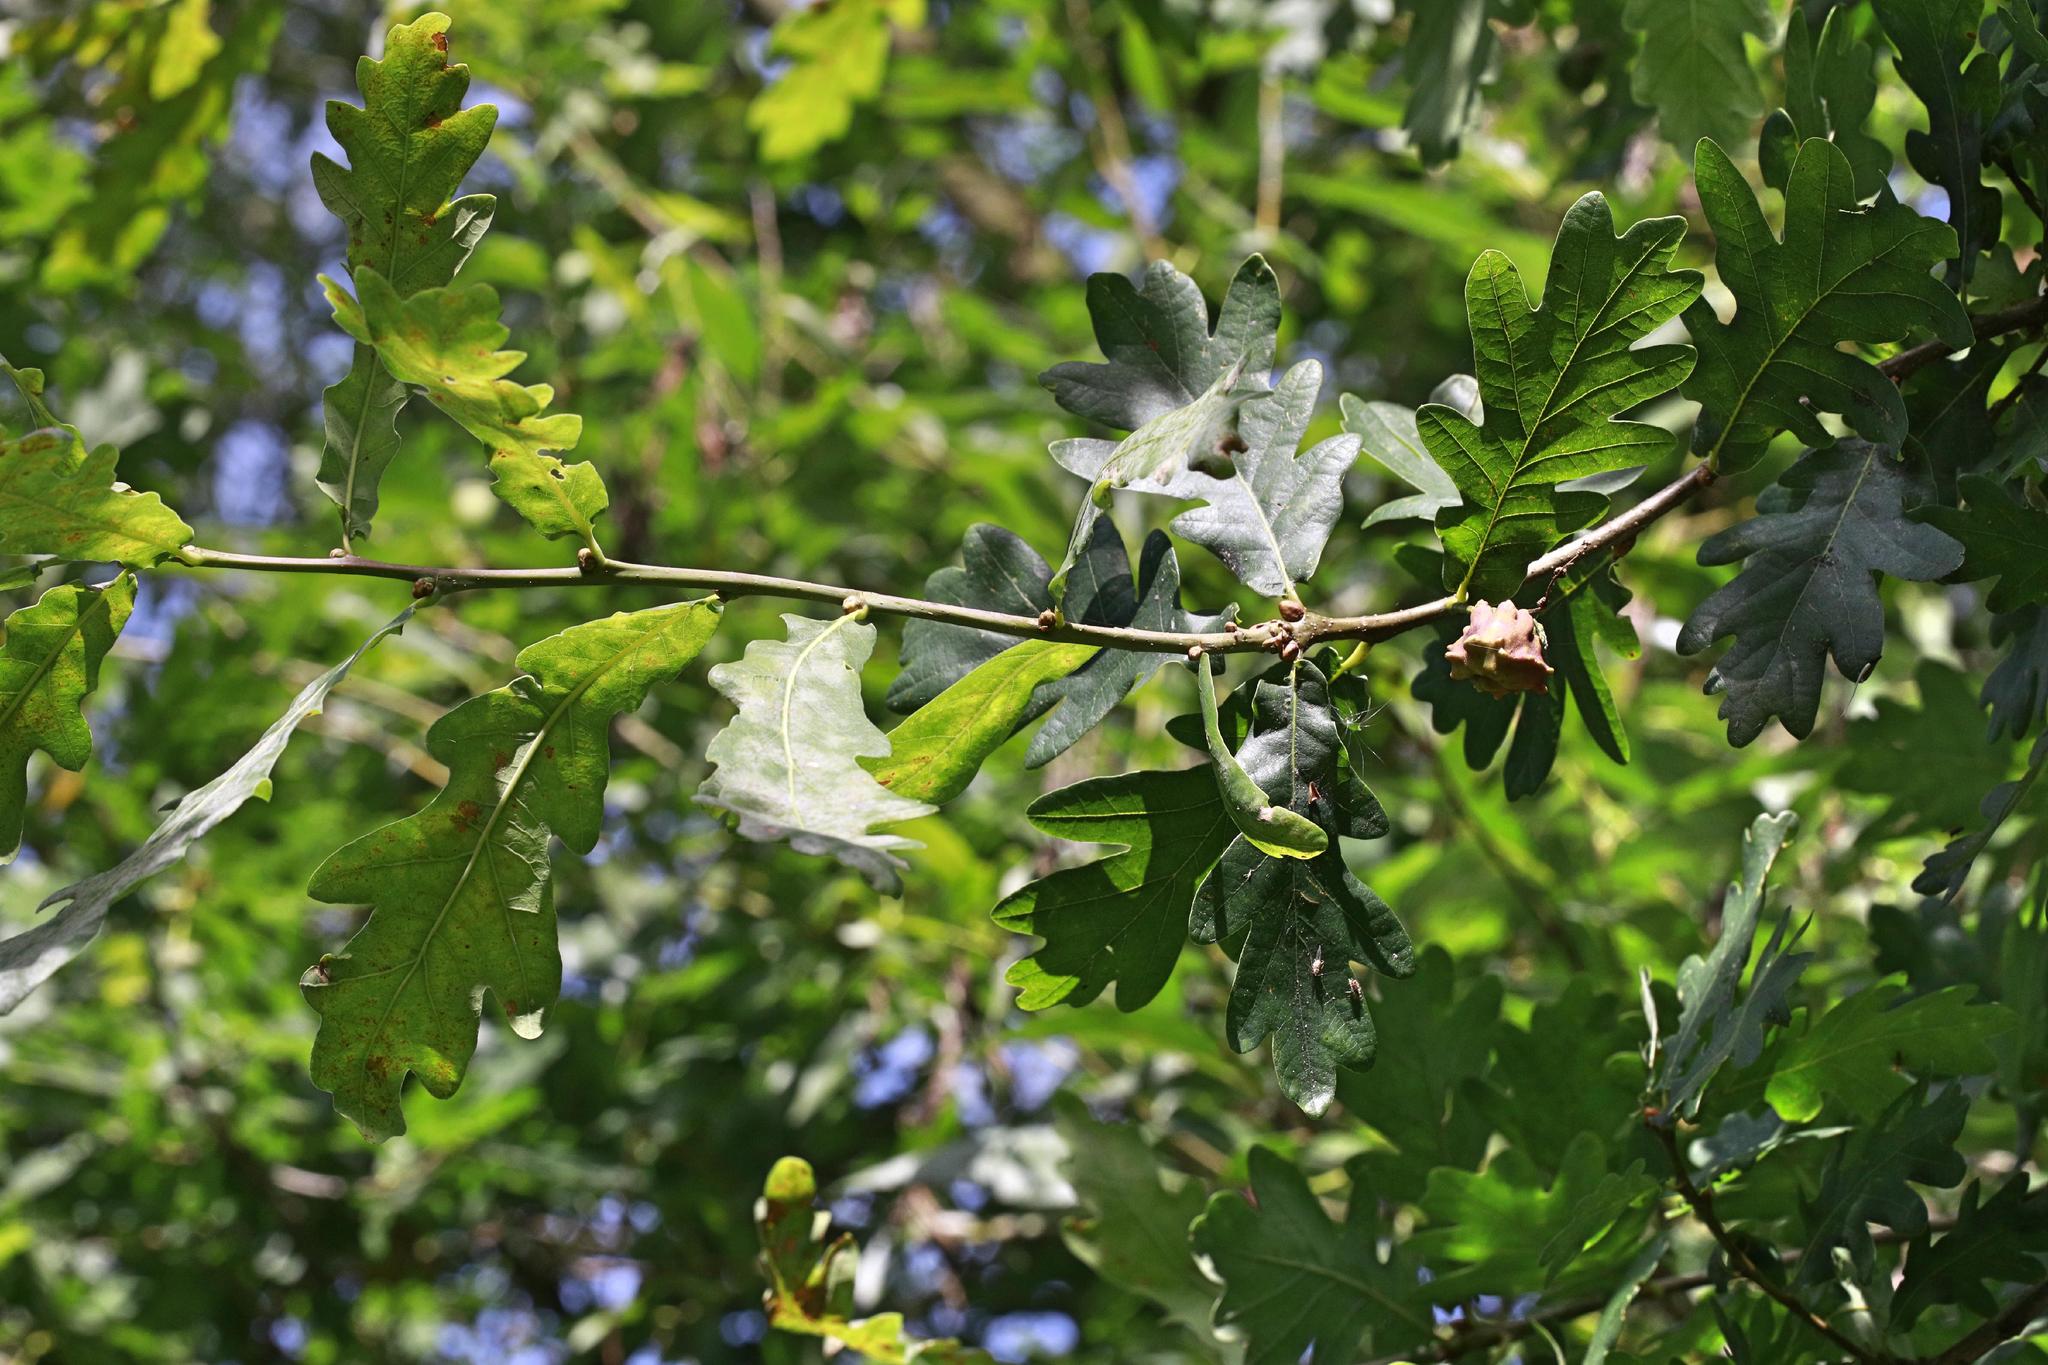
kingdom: Animalia
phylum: Arthropoda
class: Insecta
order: Hymenoptera
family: Cynipidae
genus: Andricus
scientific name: Andricus quercuscalicis
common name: Knopper gall
